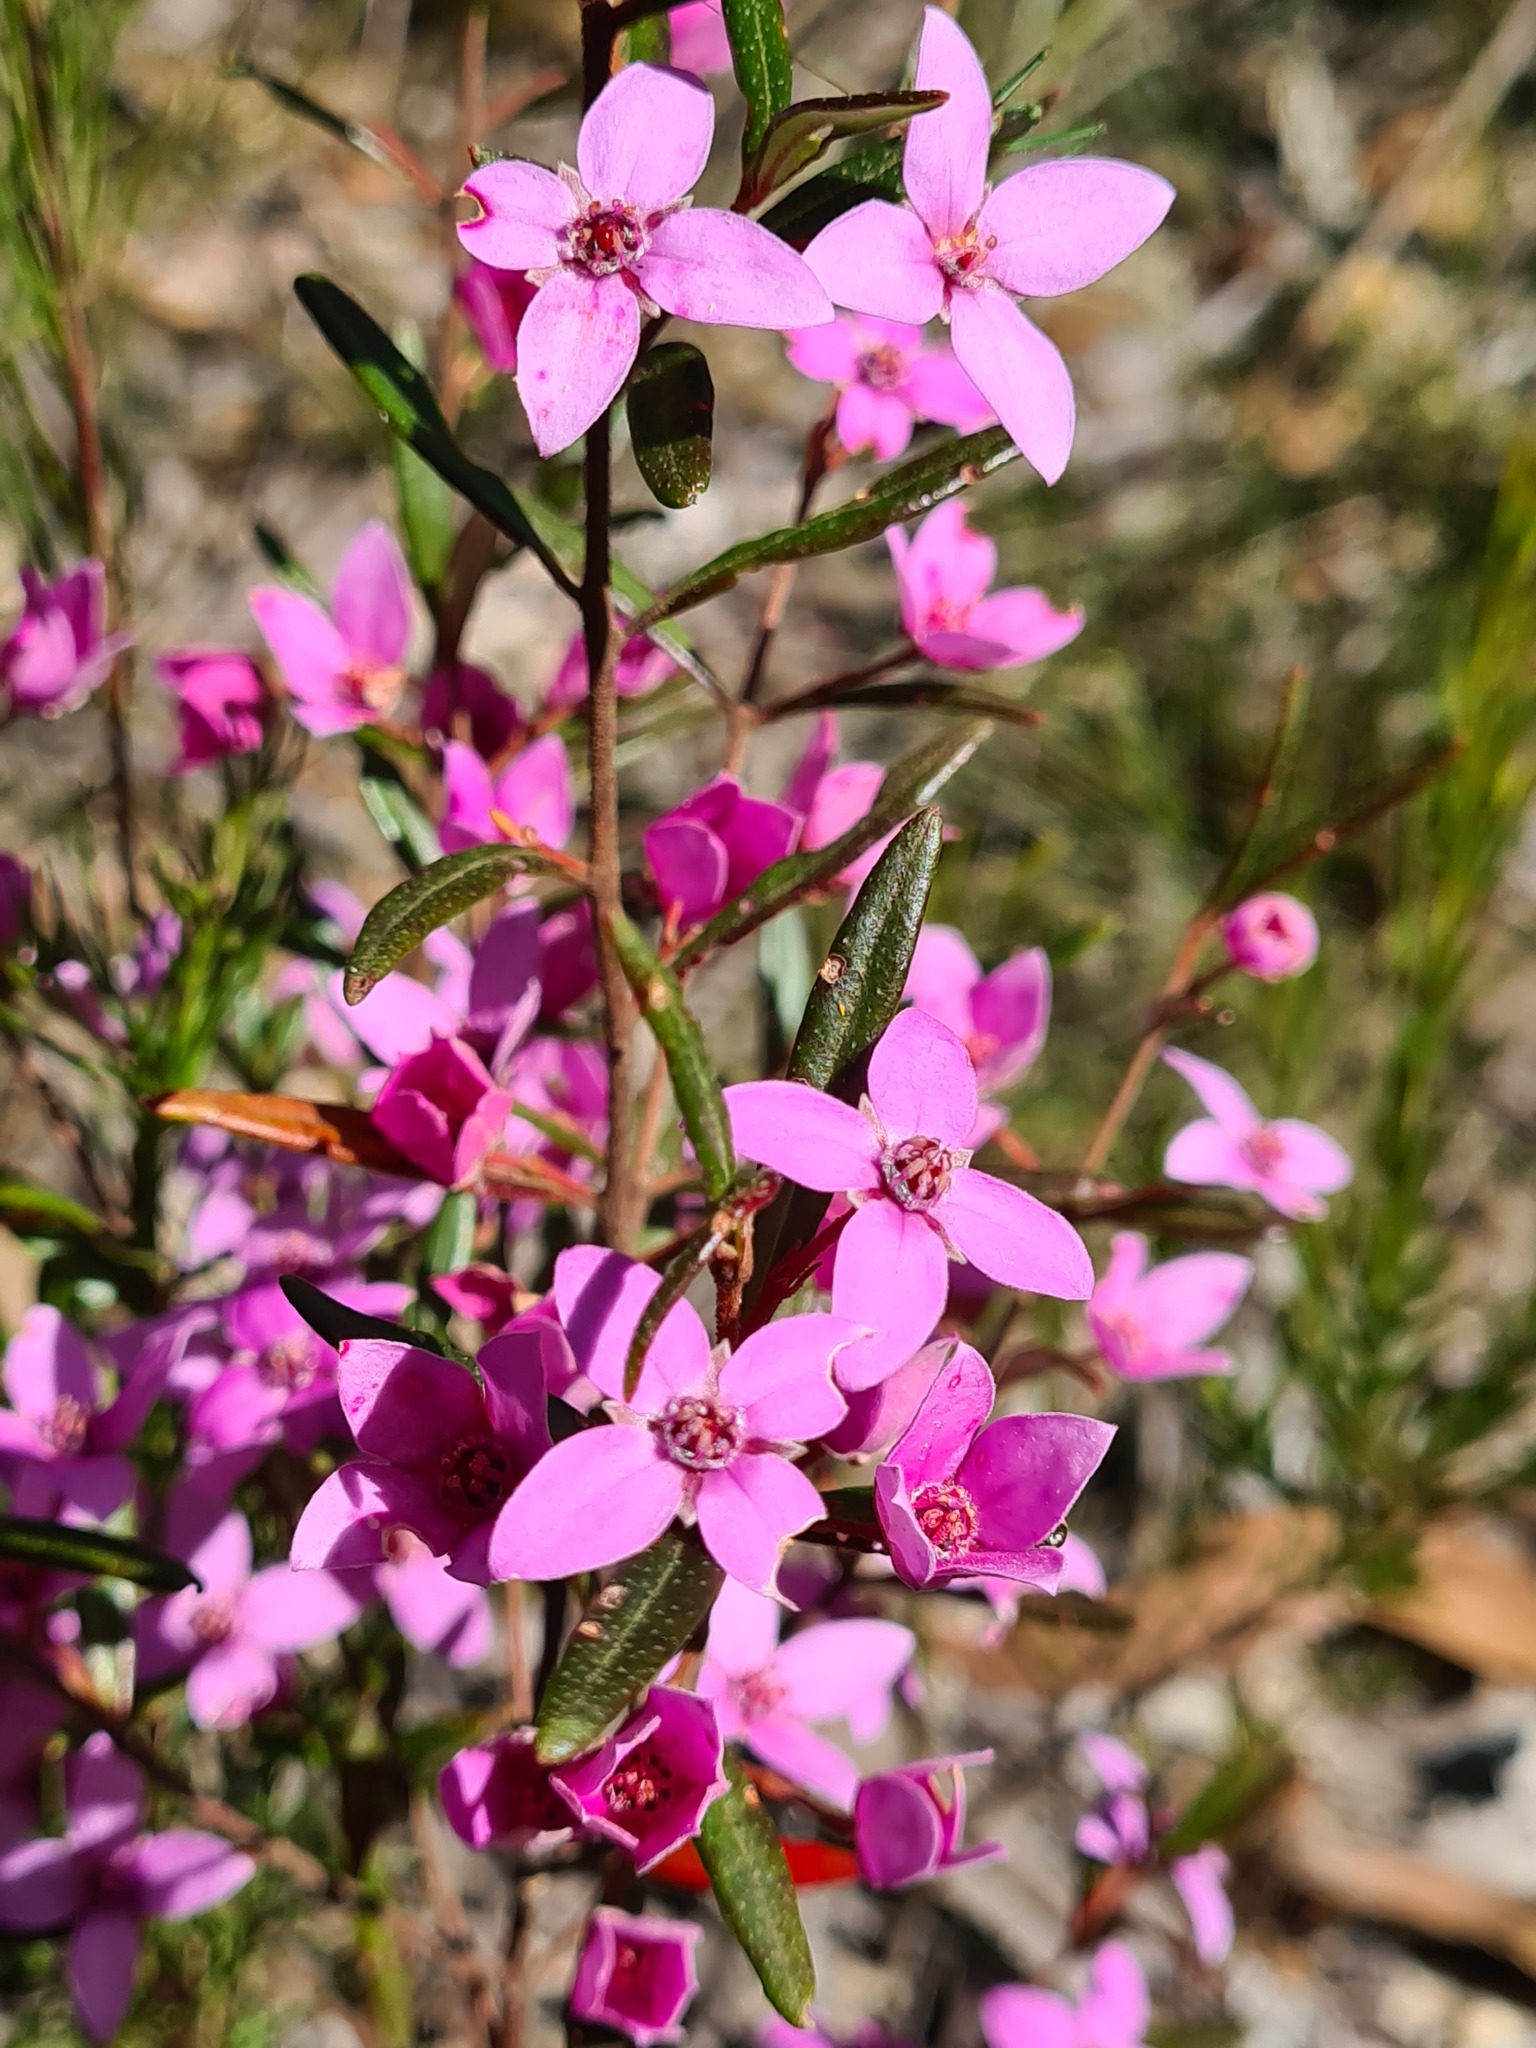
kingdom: Plantae
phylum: Tracheophyta
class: Magnoliopsida
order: Sapindales
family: Rutaceae
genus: Boronia
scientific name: Boronia ledifolia
